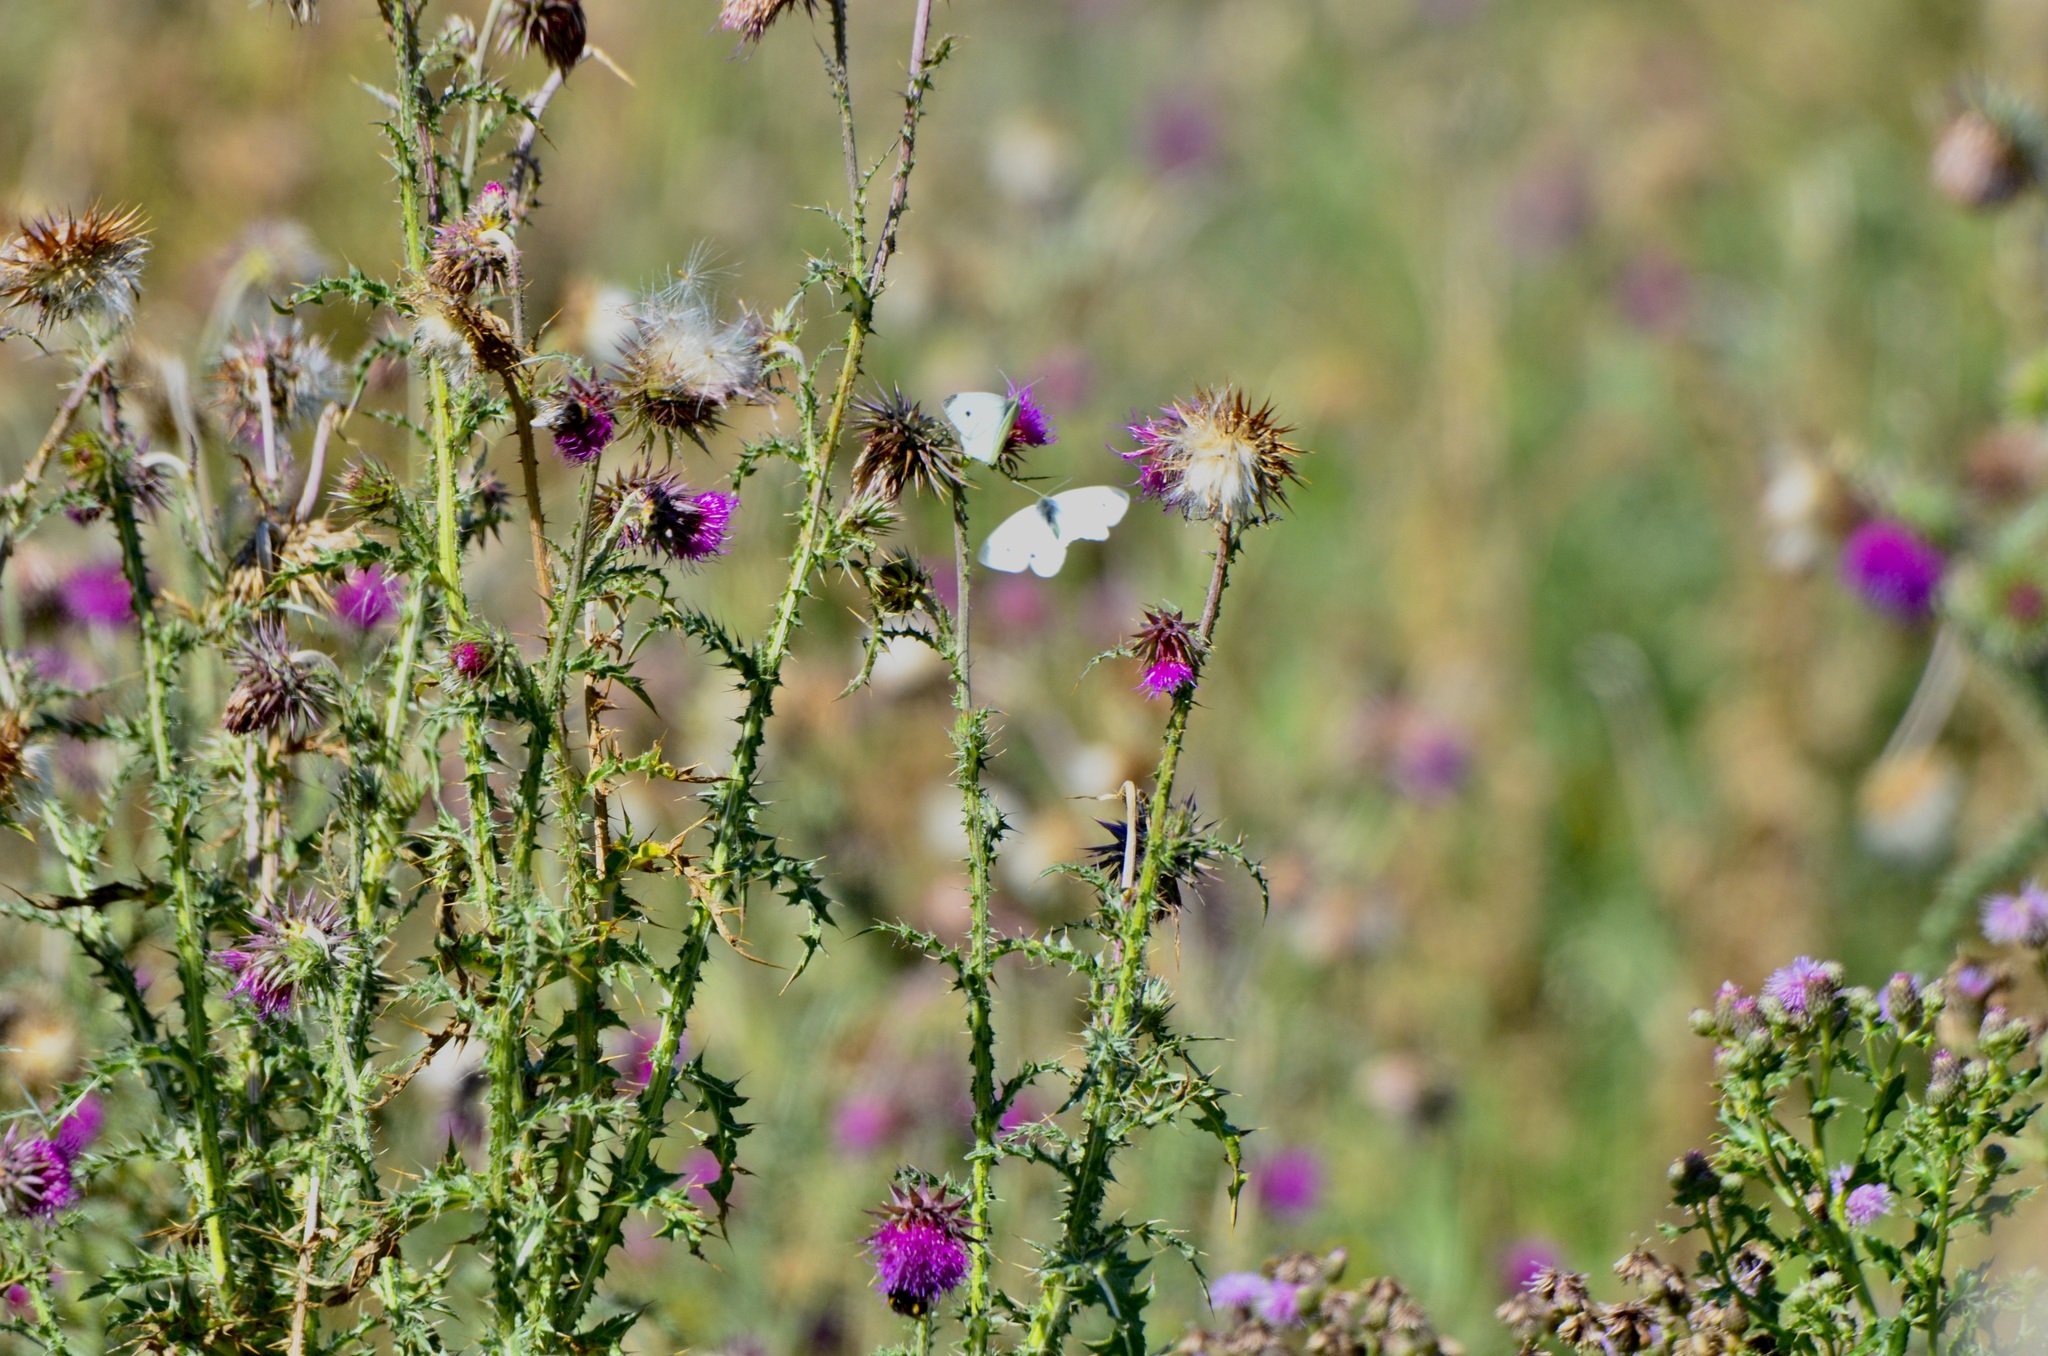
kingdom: Animalia
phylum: Arthropoda
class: Insecta
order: Lepidoptera
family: Pieridae
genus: Pieris
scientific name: Pieris rapae
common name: Small white
